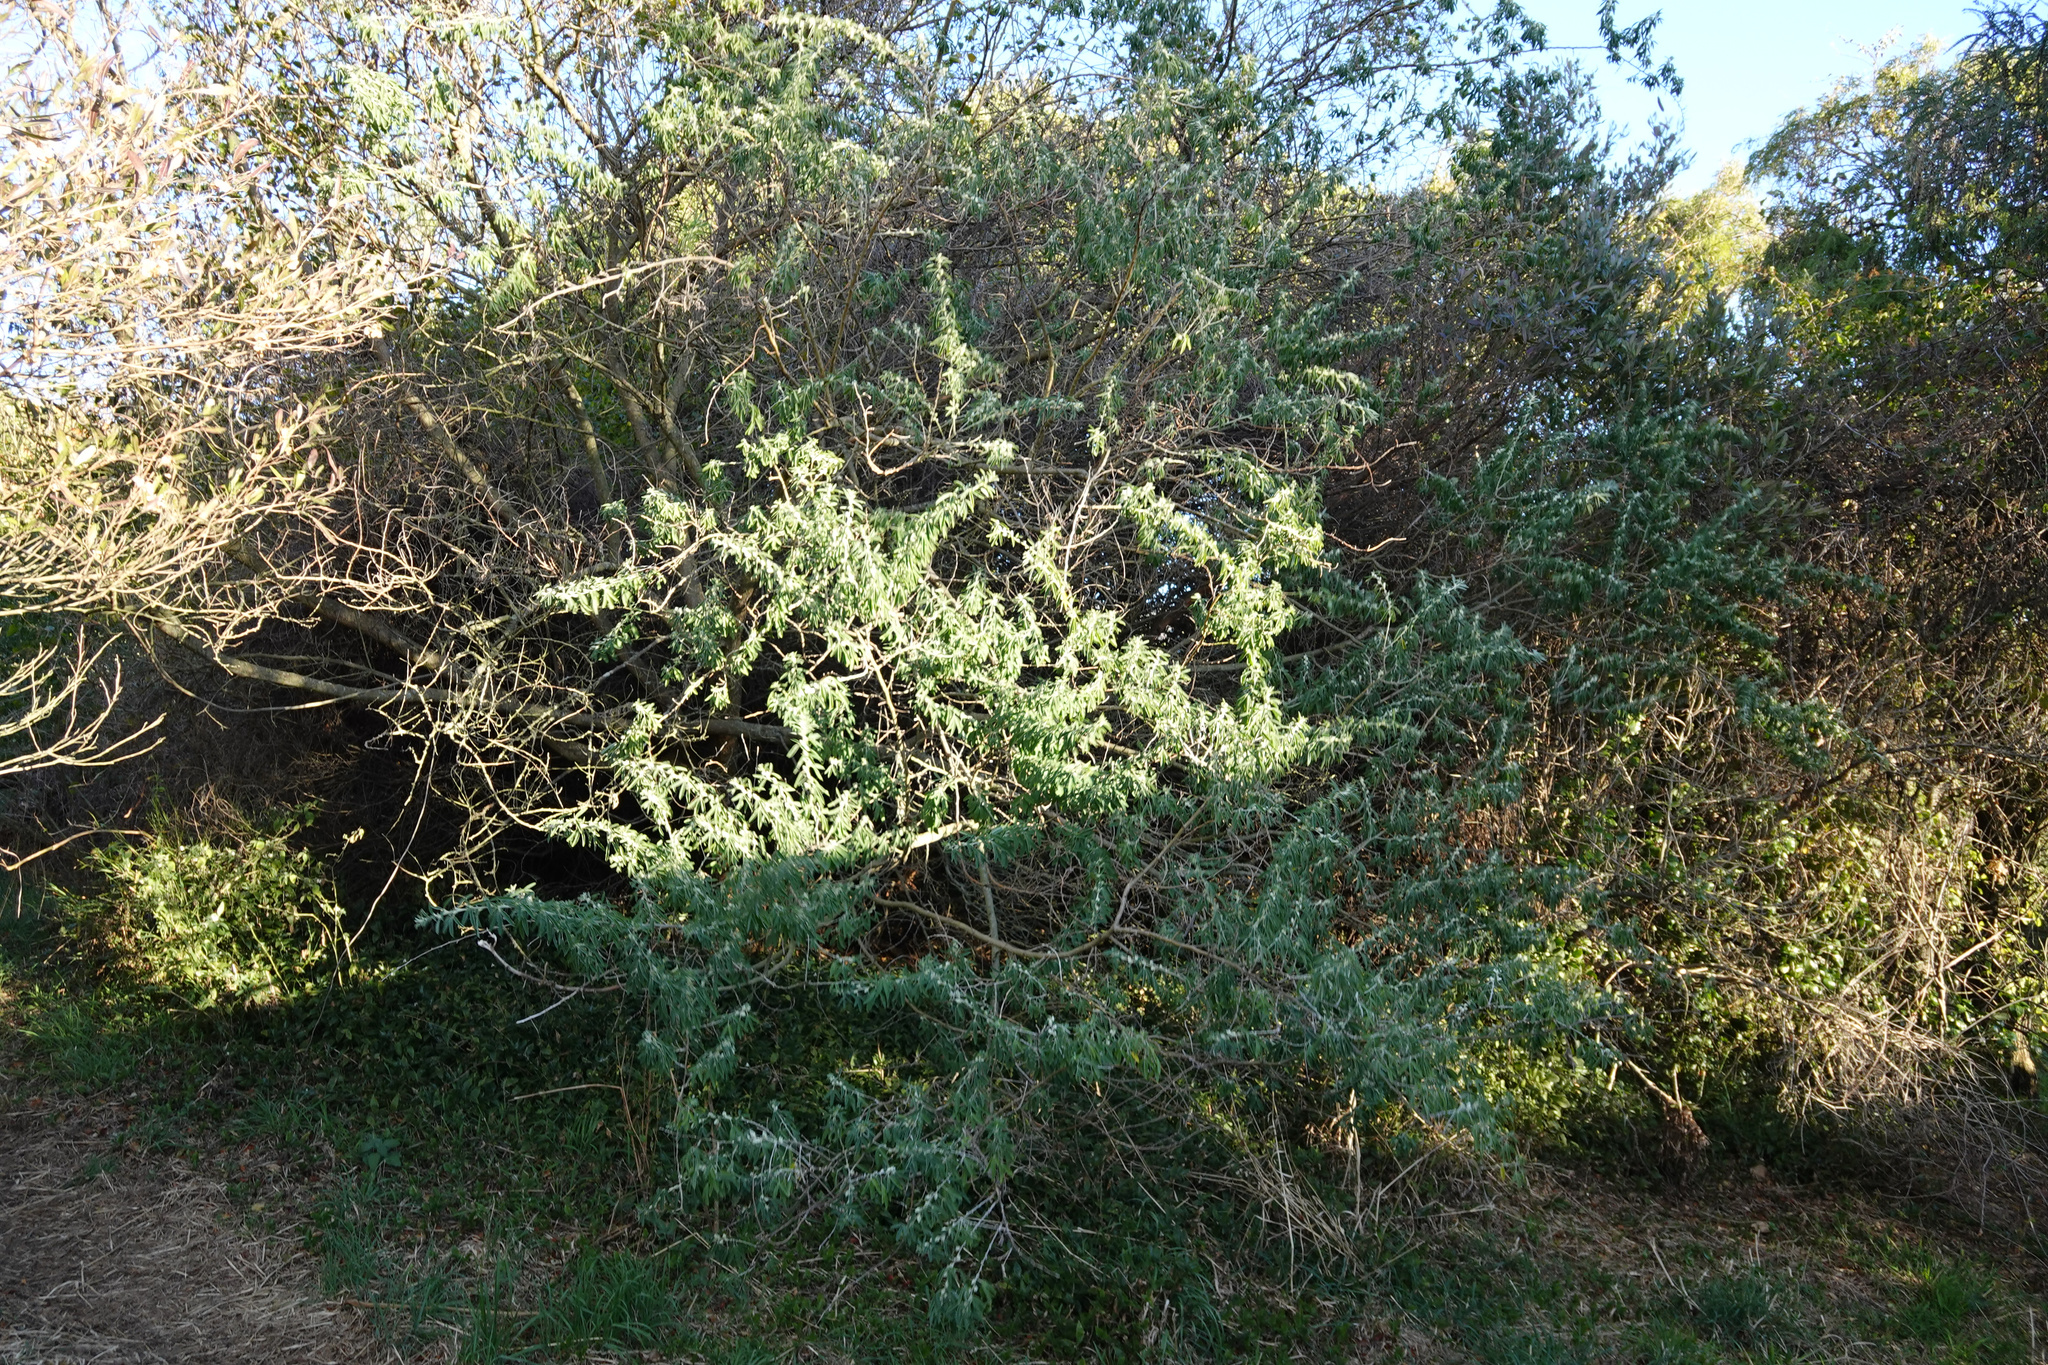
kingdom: Plantae
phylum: Tracheophyta
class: Magnoliopsida
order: Fabales
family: Fabaceae
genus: Chamaecytisus
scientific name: Chamaecytisus prolifer
